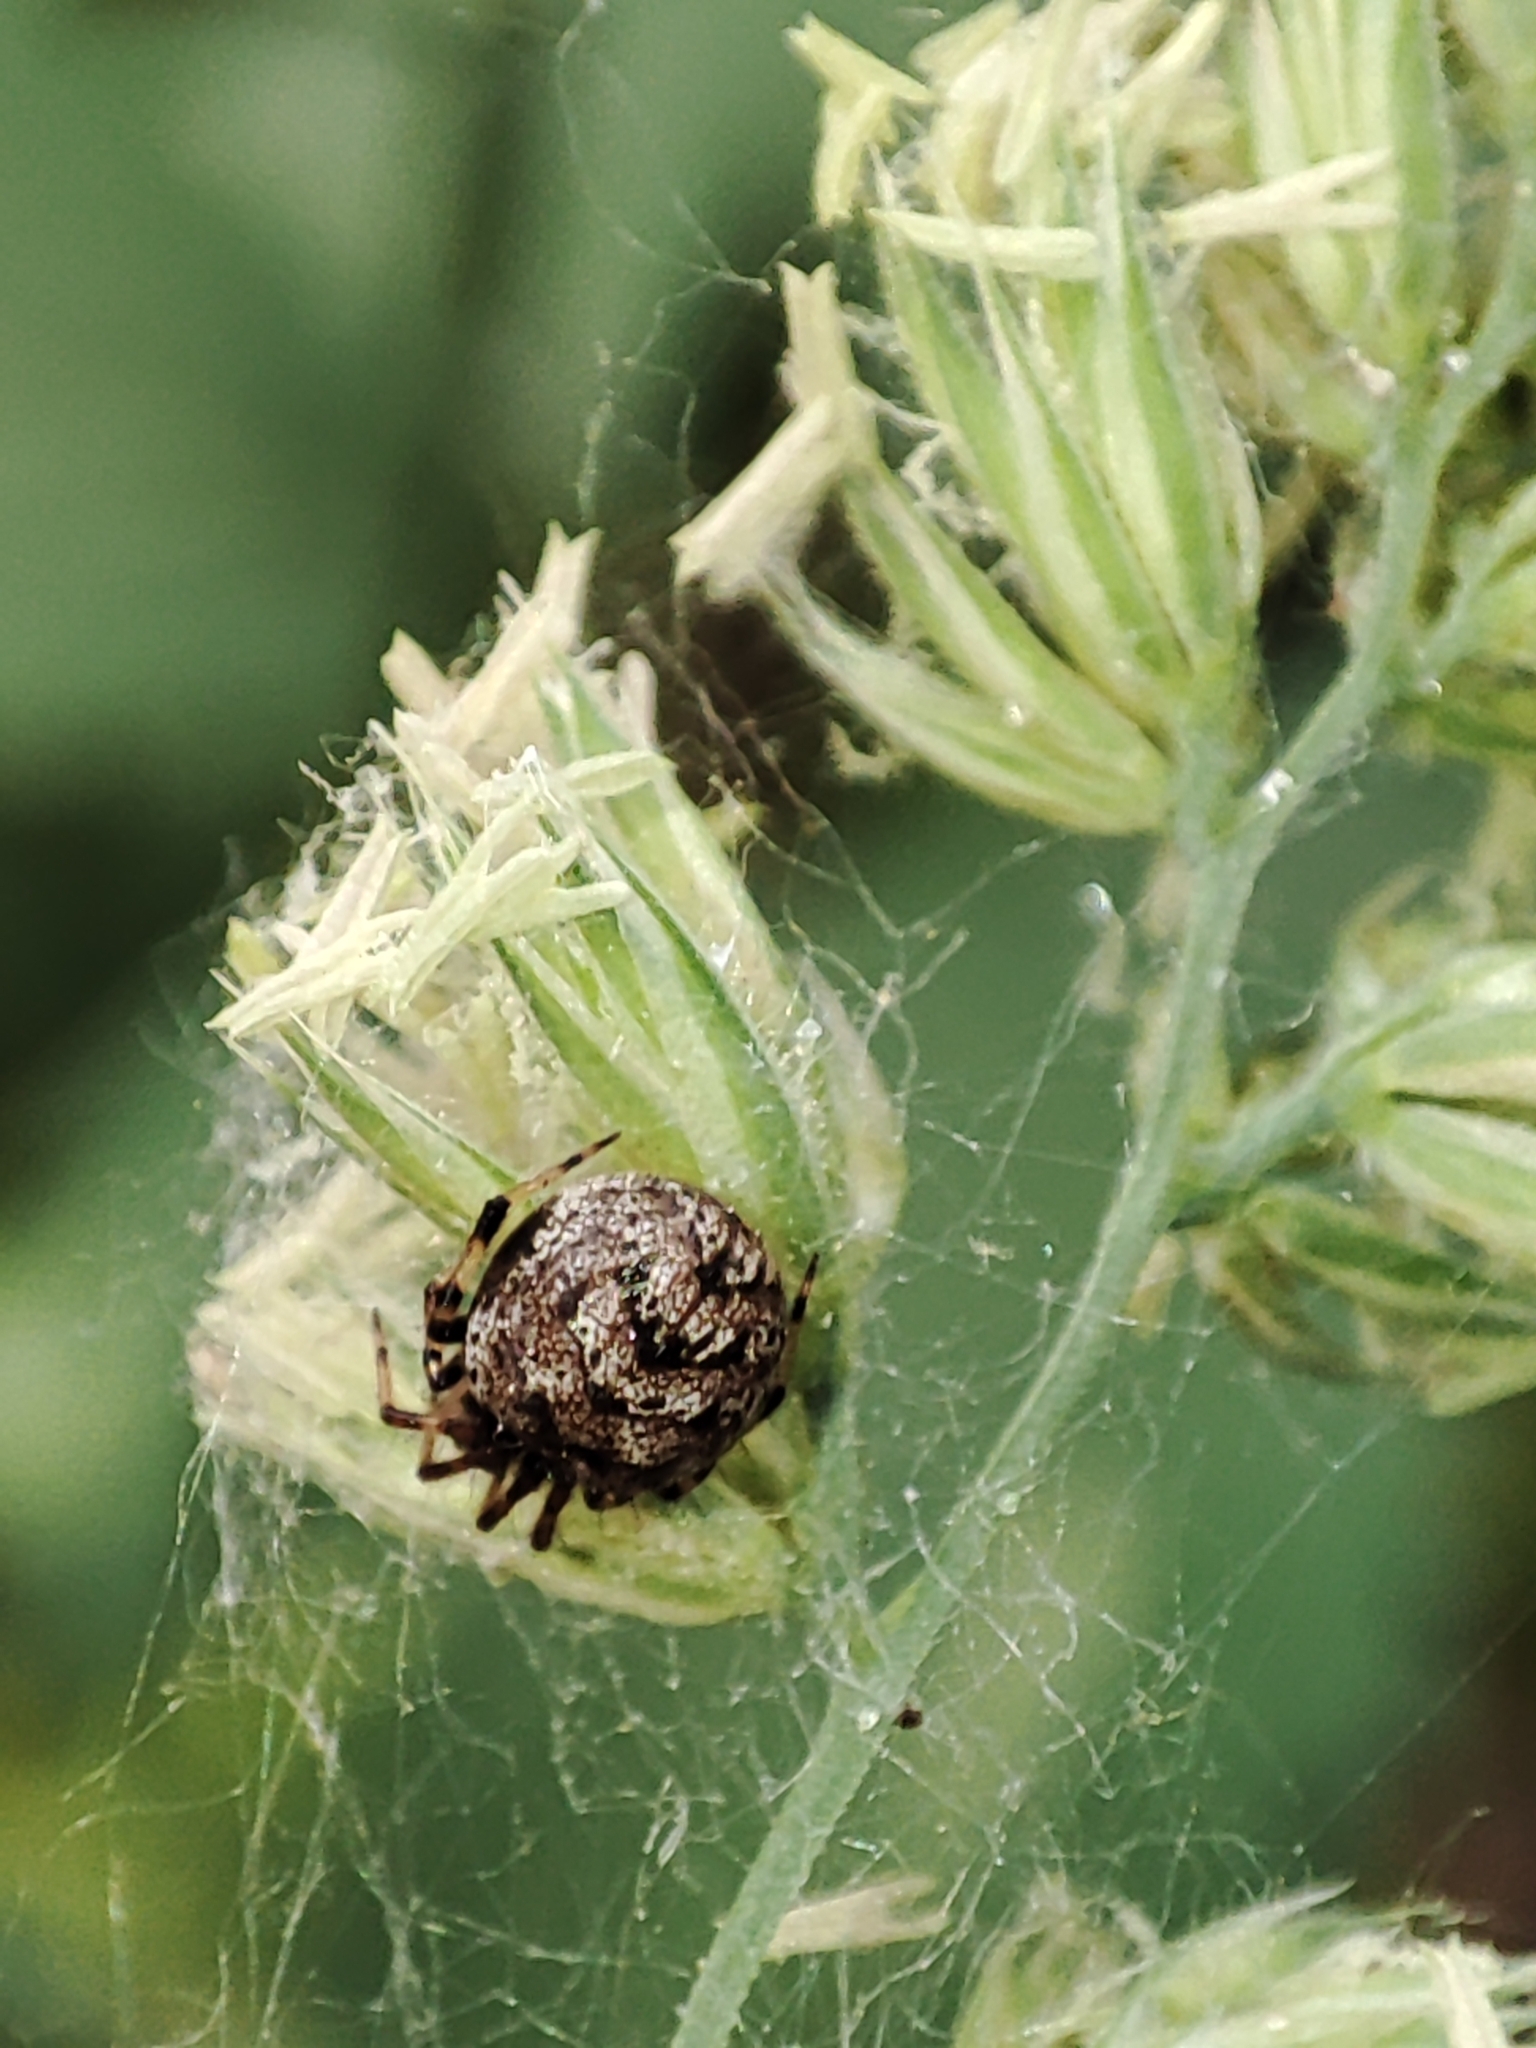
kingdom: Animalia
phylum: Arthropoda
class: Arachnida
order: Araneae
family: Theridiidae
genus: Dipoena
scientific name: Dipoena melanogaster
